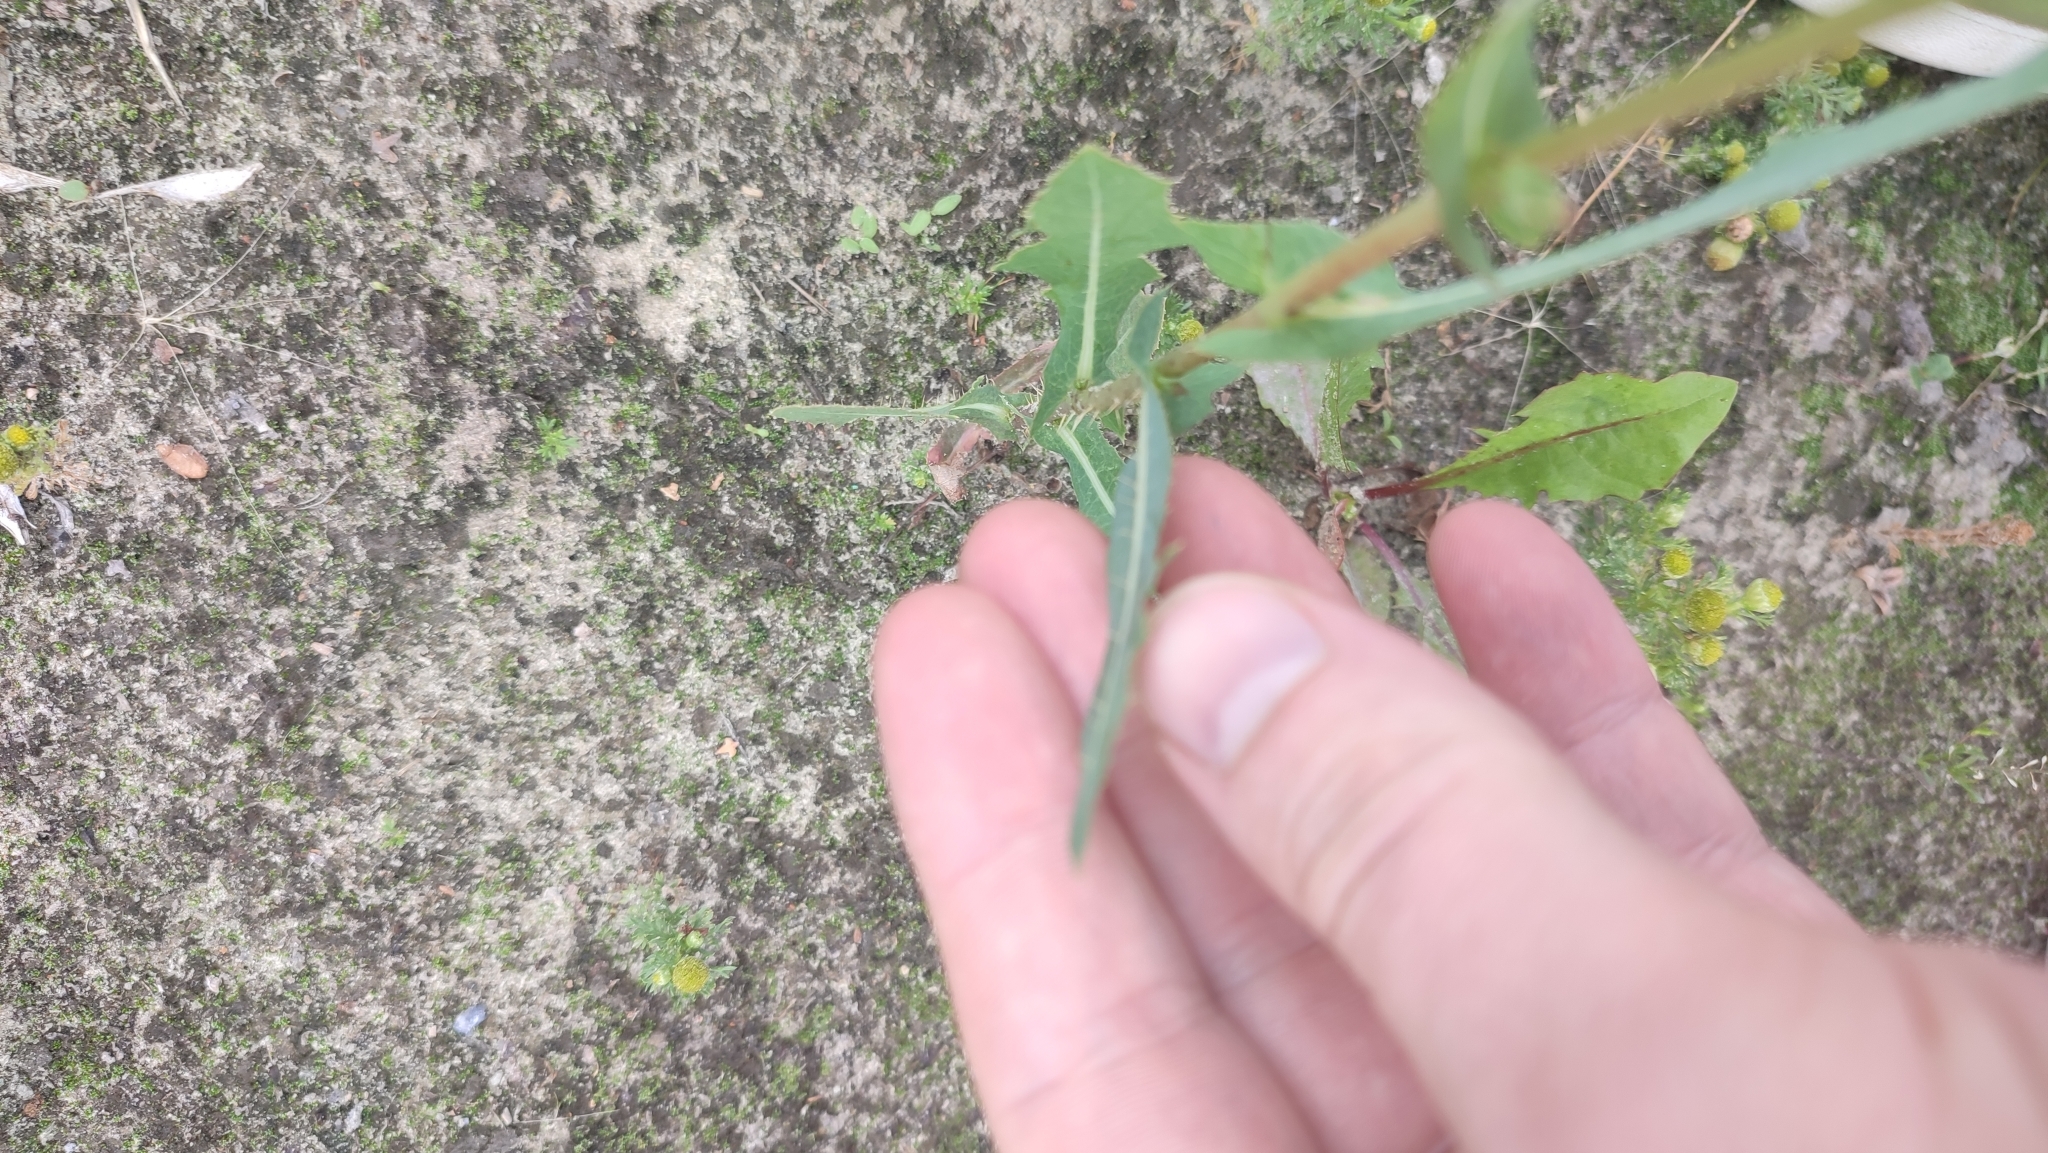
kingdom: Plantae
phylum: Tracheophyta
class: Magnoliopsida
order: Asterales
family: Asteraceae
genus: Lactuca
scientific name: Lactuca serriola
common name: Prickly lettuce
